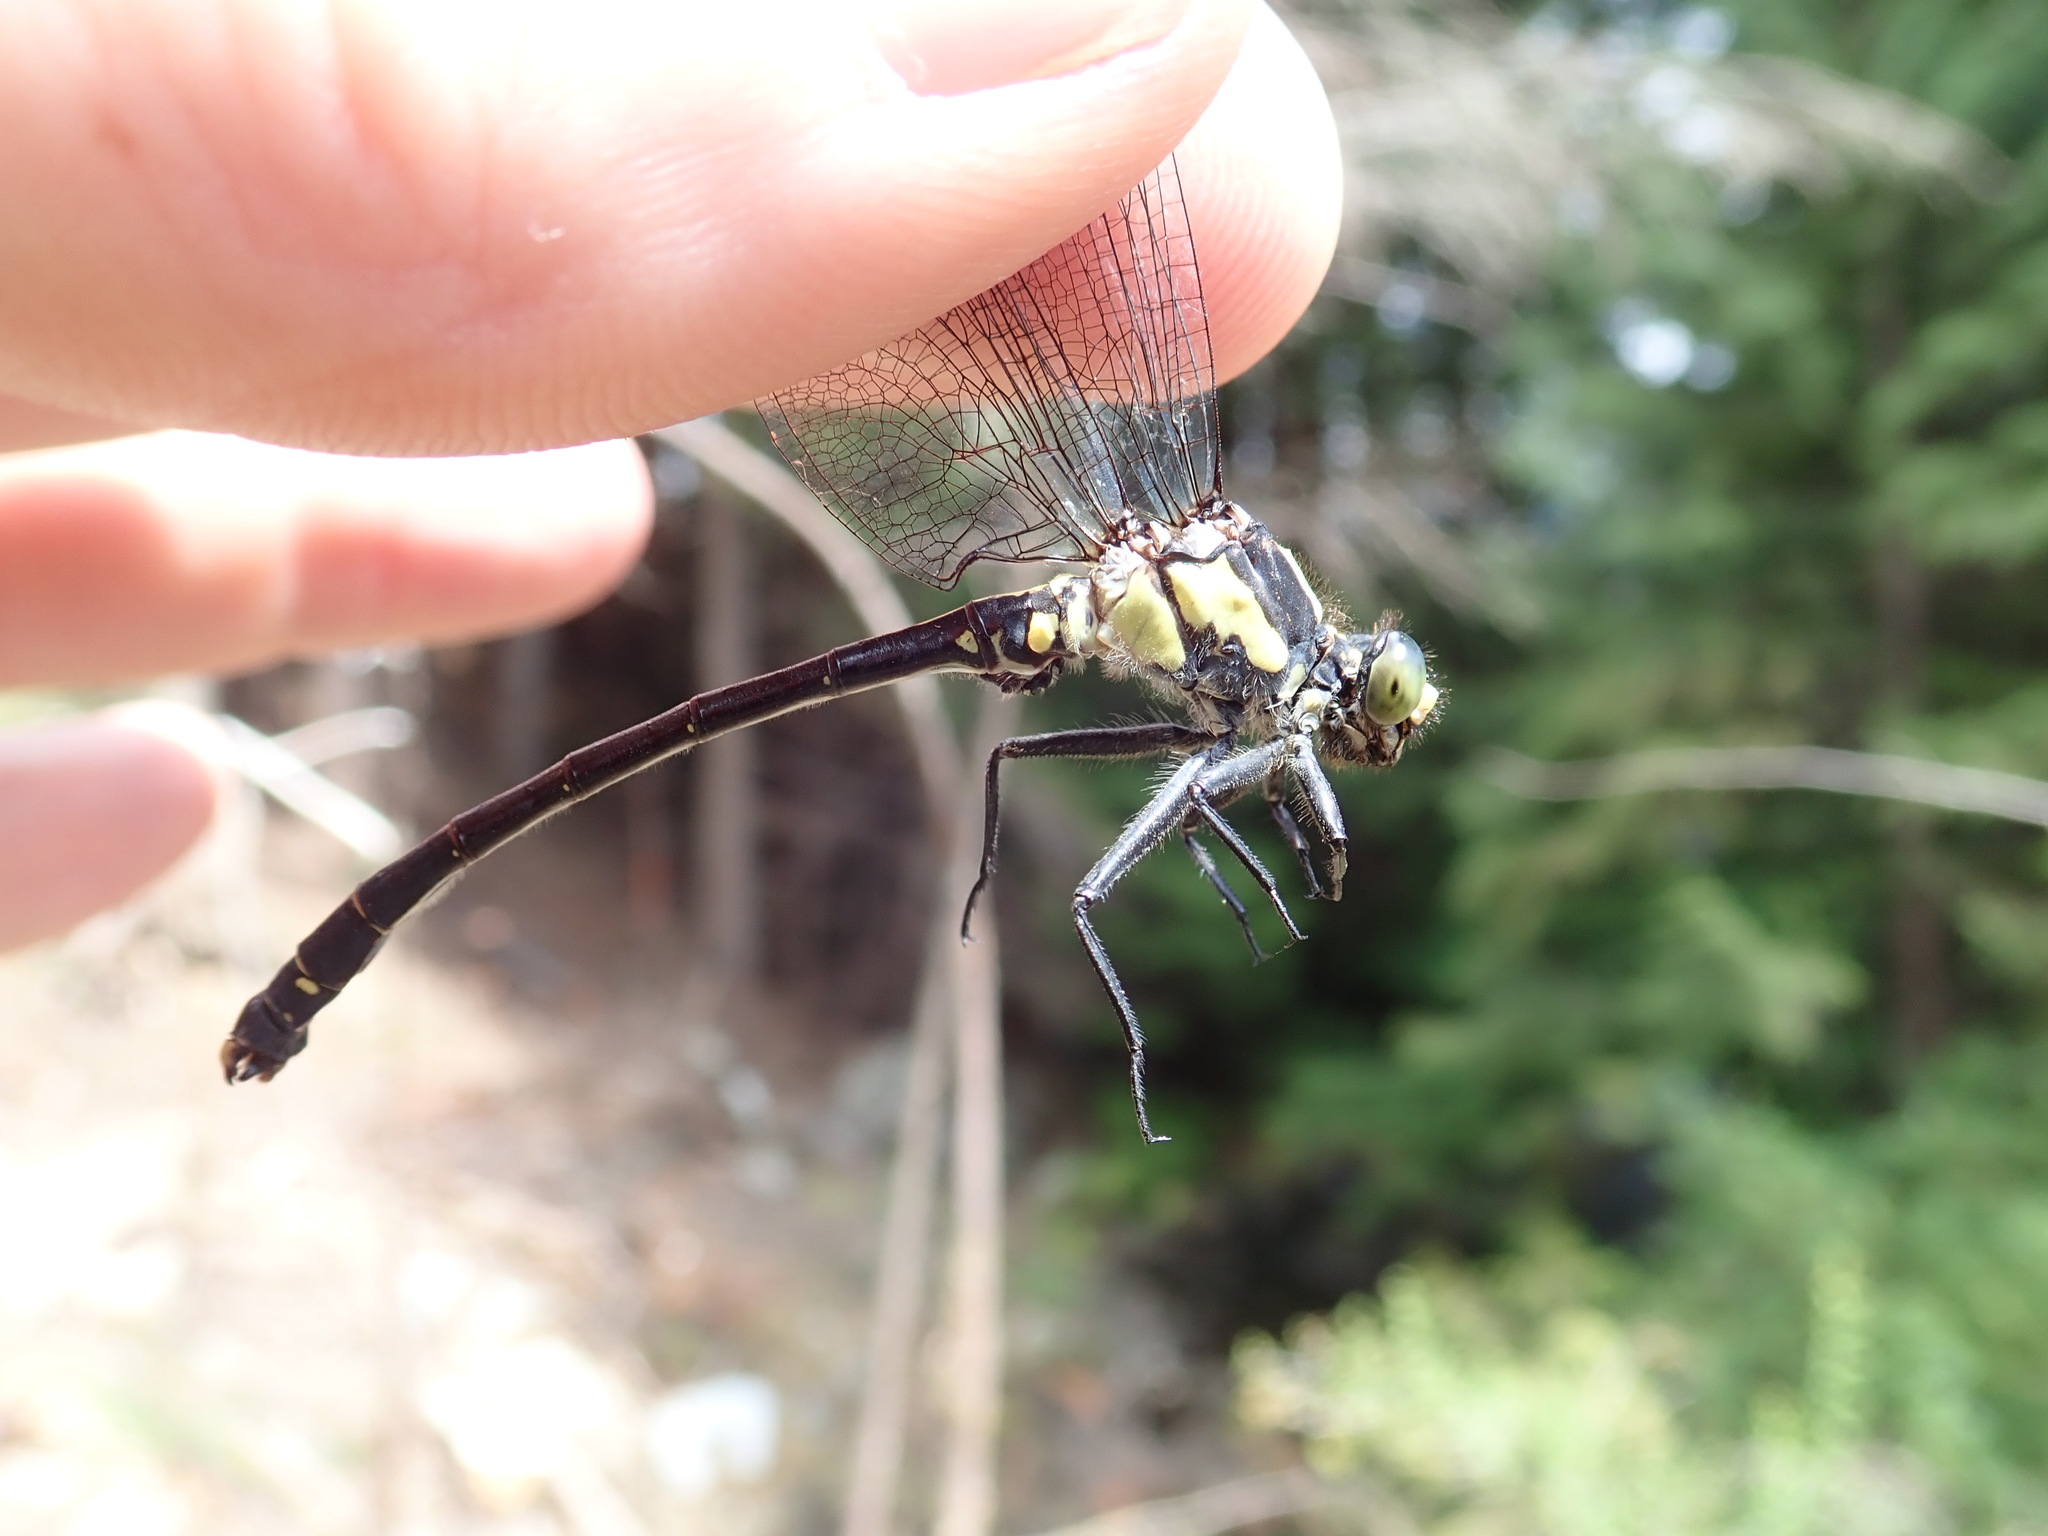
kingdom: Animalia
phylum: Arthropoda
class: Insecta
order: Odonata
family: Gomphidae
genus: Octogomphus
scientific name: Octogomphus specularis
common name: Grappletail
